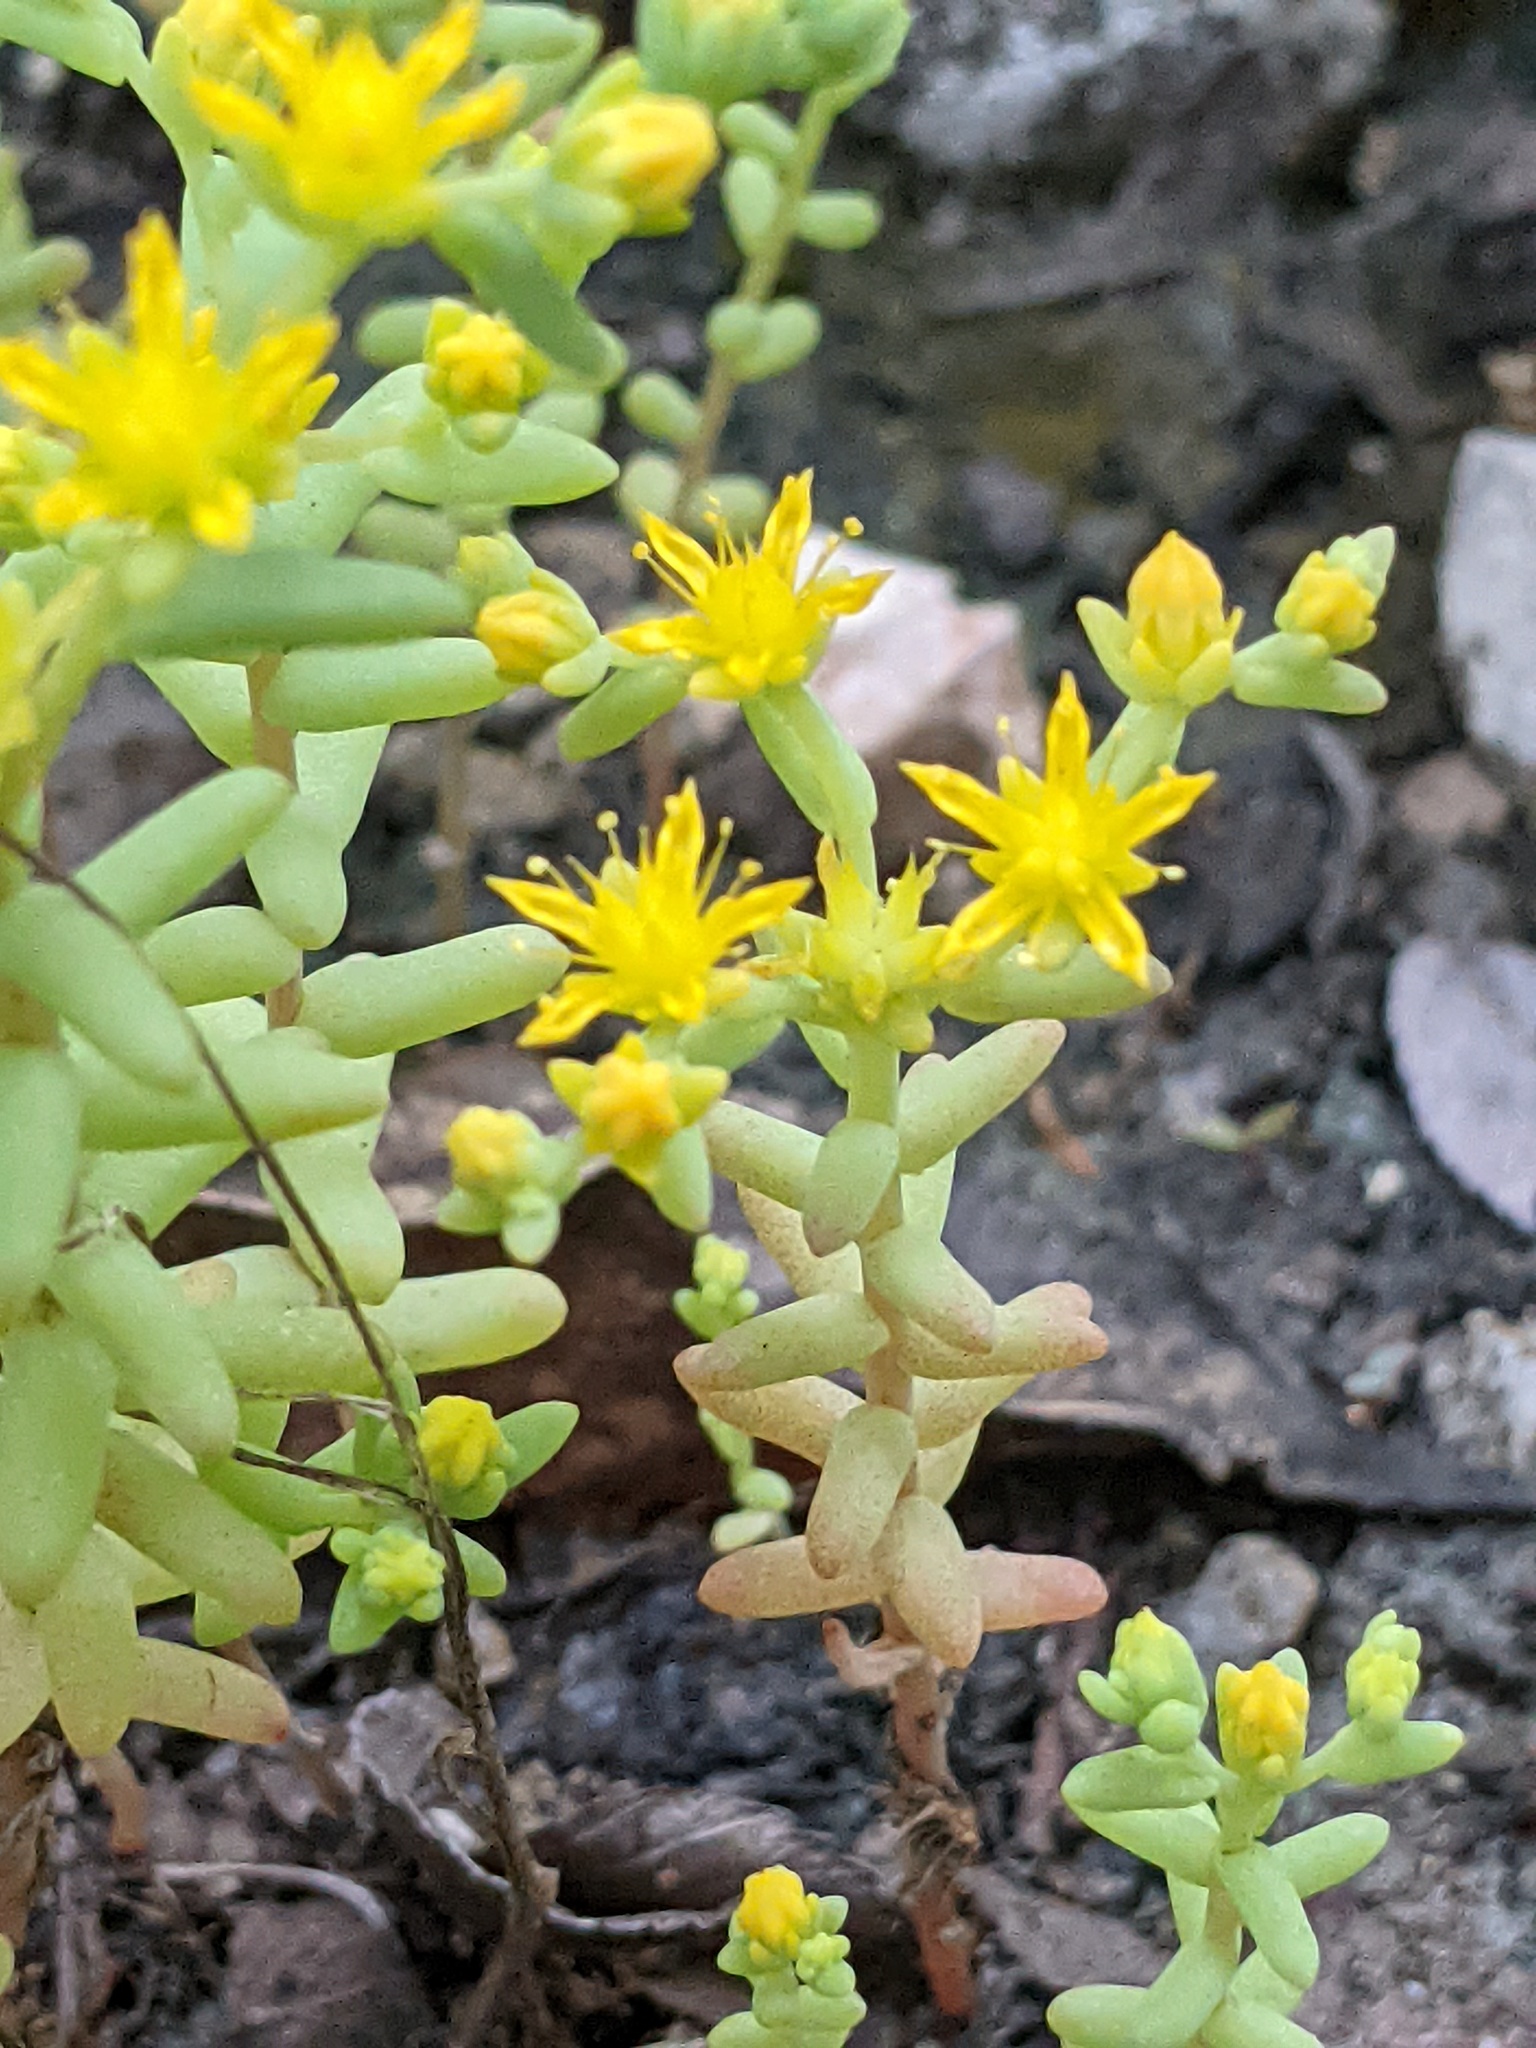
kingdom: Plantae
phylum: Tracheophyta
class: Magnoliopsida
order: Saxifragales
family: Crassulaceae
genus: Sedum
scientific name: Sedum nuttallii
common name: Yellow stonecrop
